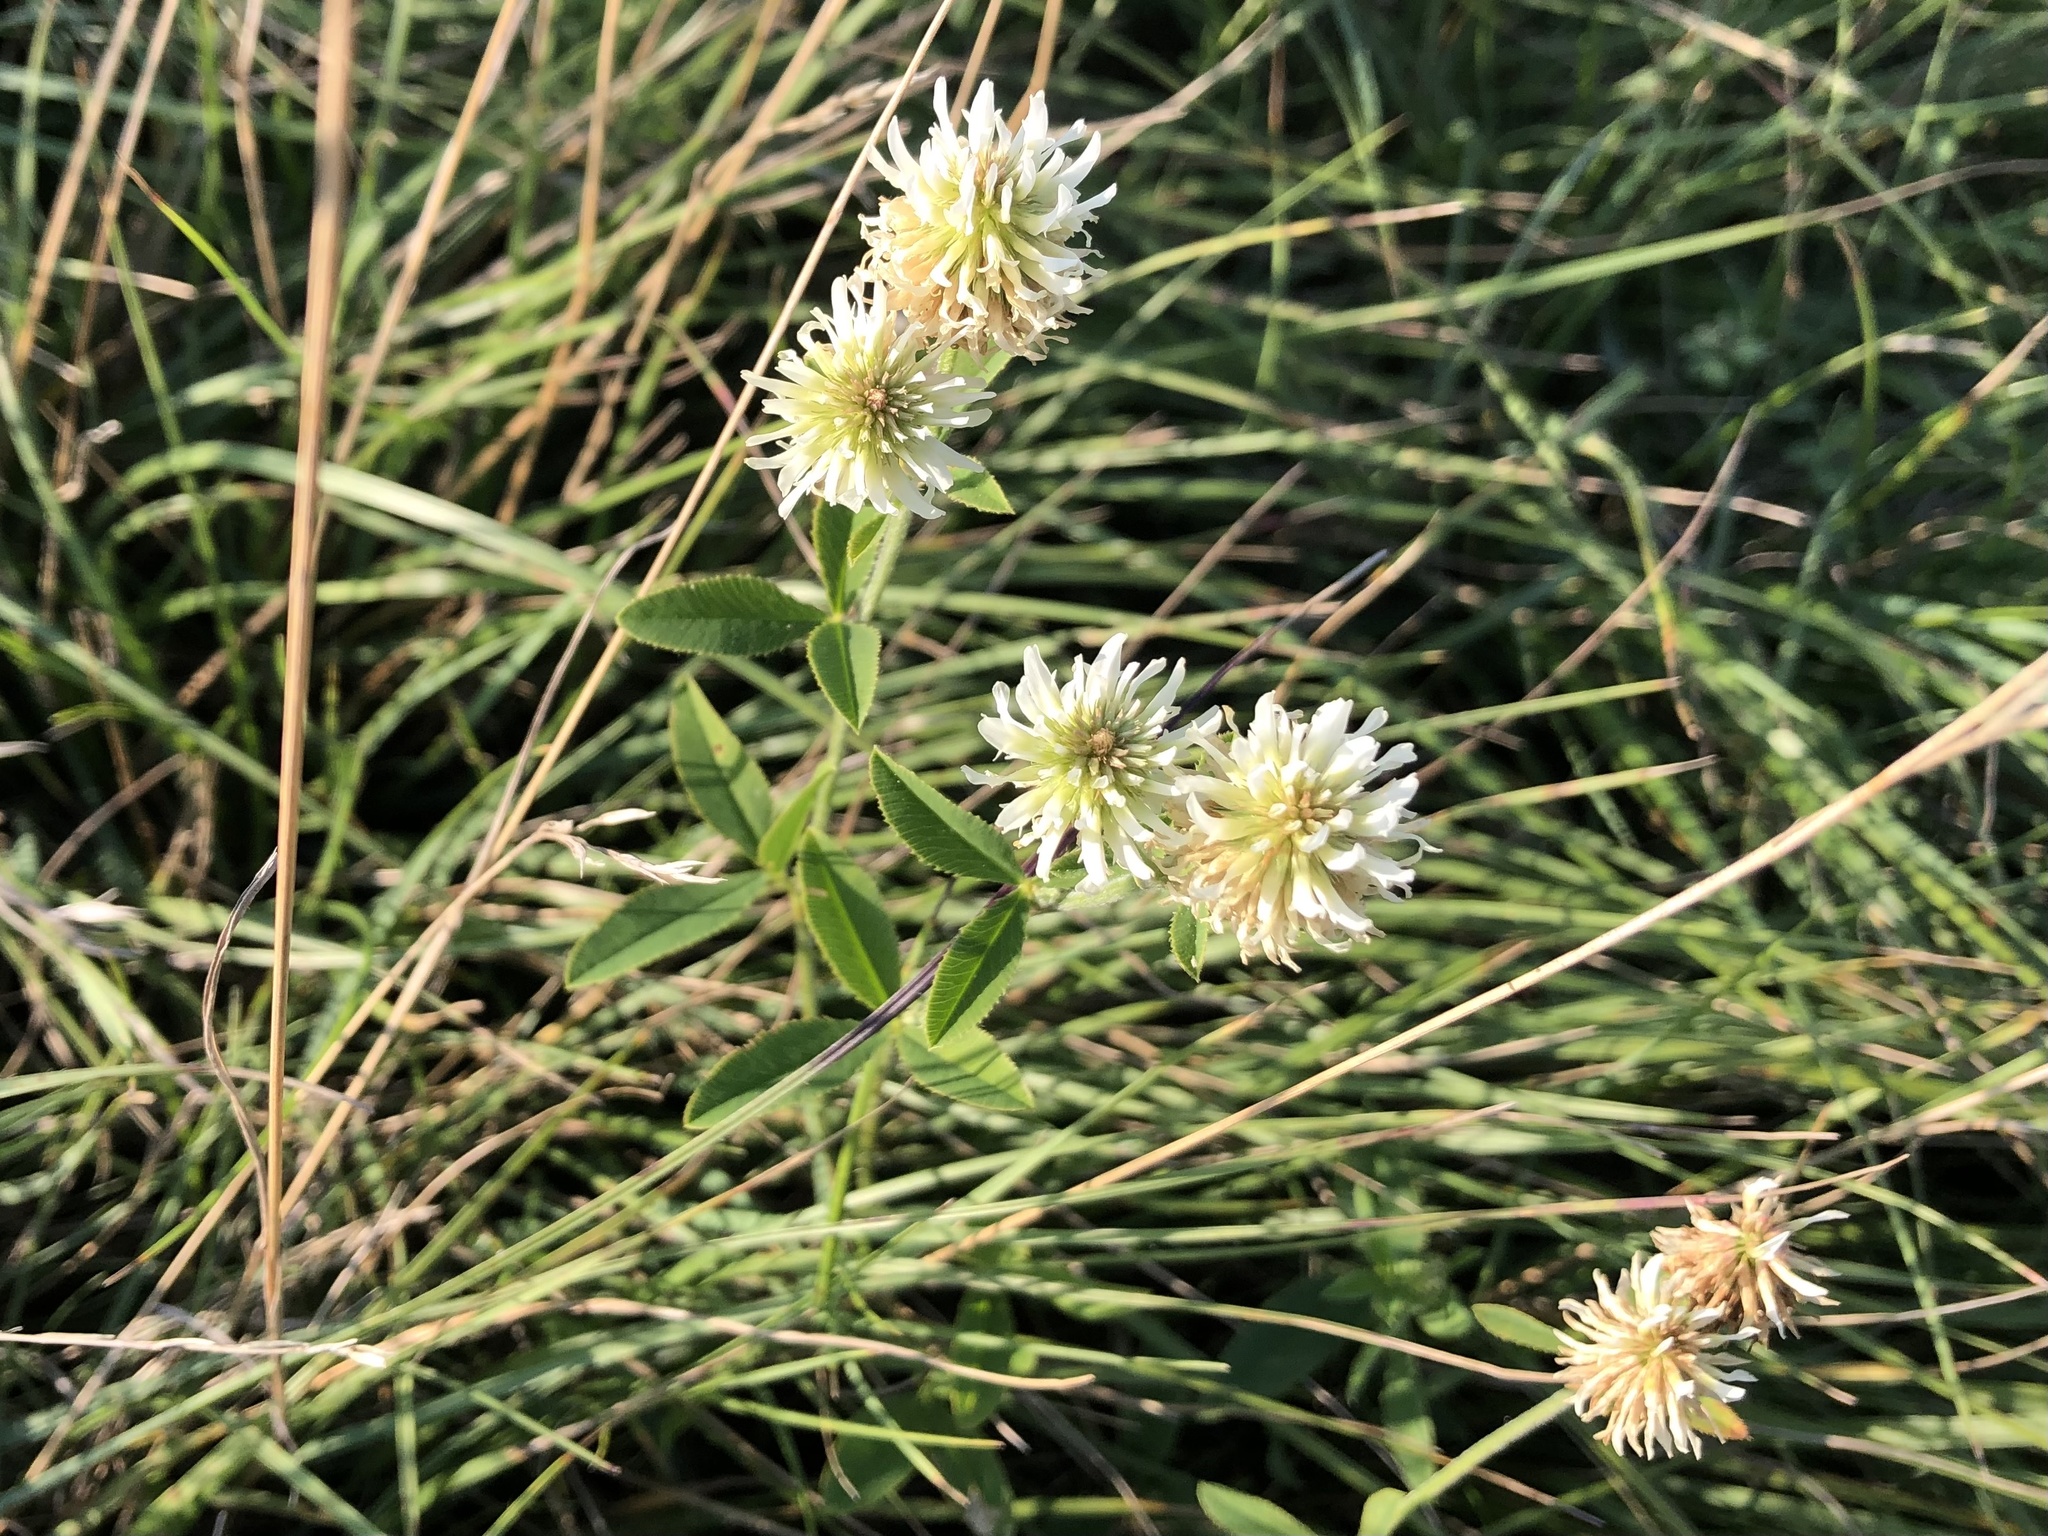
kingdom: Plantae
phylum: Tracheophyta
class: Magnoliopsida
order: Fabales
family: Fabaceae
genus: Trifolium
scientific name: Trifolium montanum
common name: Mountain clover
